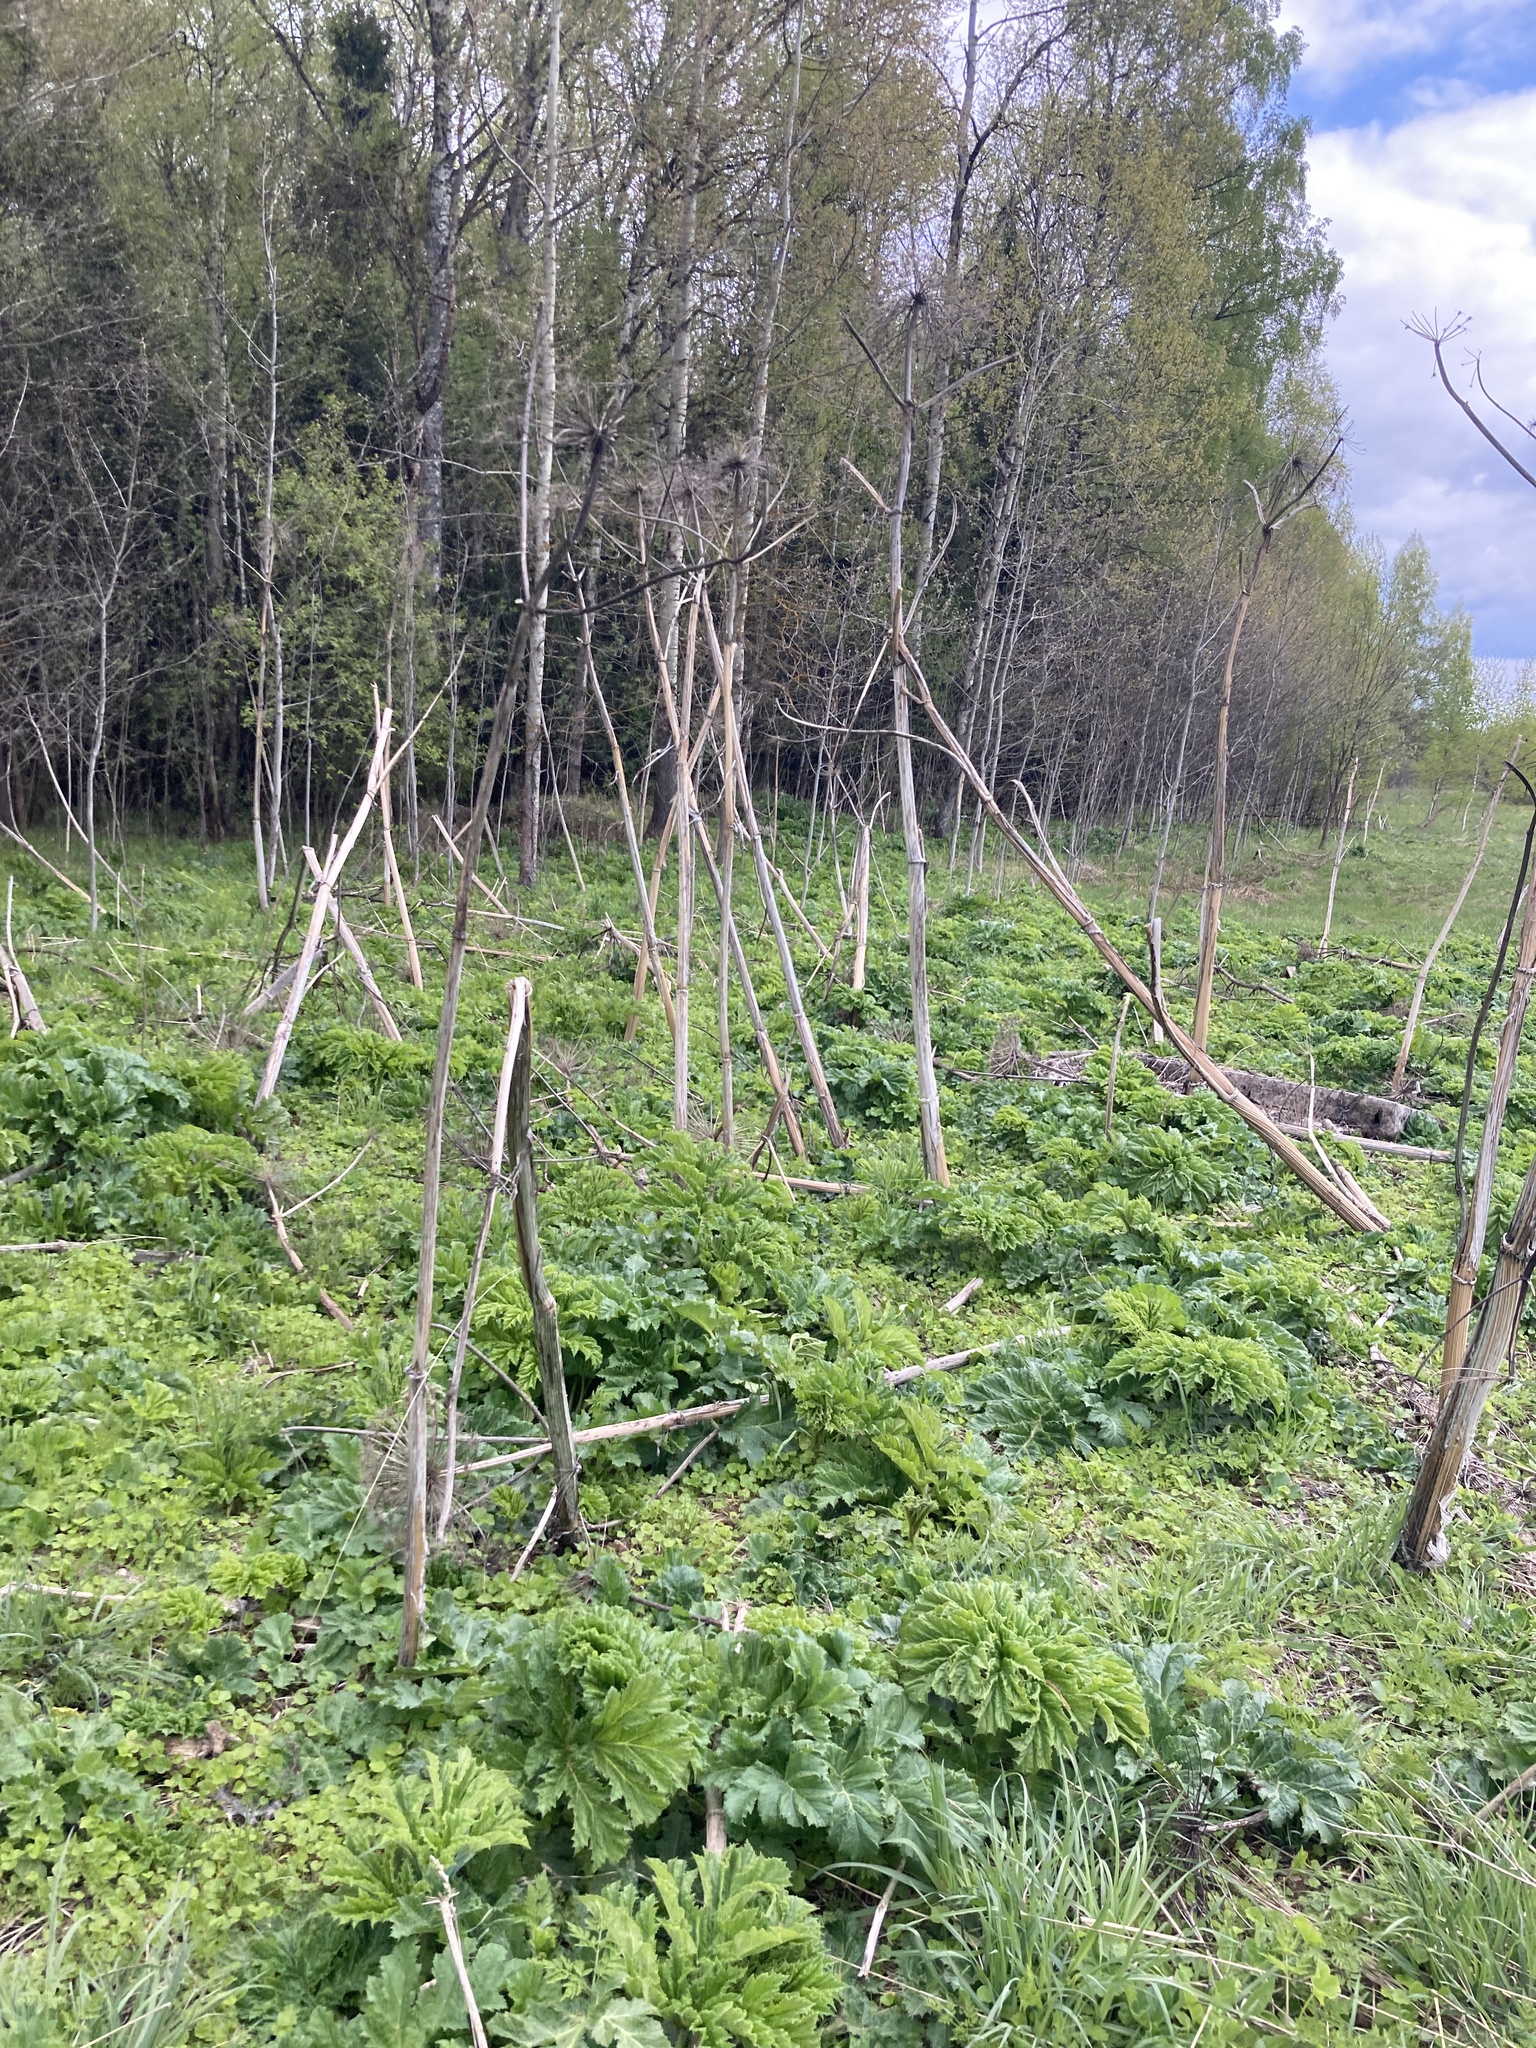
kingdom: Plantae
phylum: Tracheophyta
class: Magnoliopsida
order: Apiales
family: Apiaceae
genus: Heracleum
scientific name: Heracleum sosnowskyi
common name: Sosnowsky's hogweed
